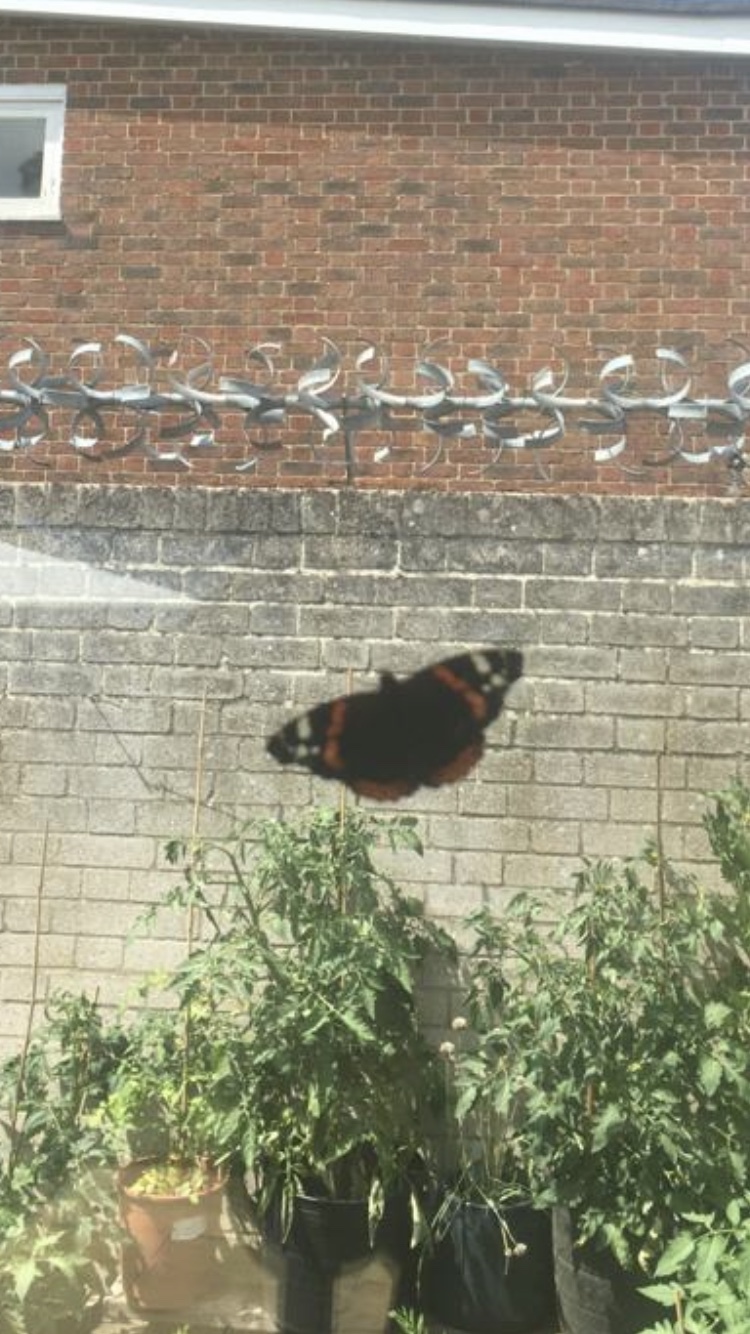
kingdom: Animalia
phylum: Arthropoda
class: Insecta
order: Lepidoptera
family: Nymphalidae
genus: Vanessa
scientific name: Vanessa atalanta
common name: Red admiral
